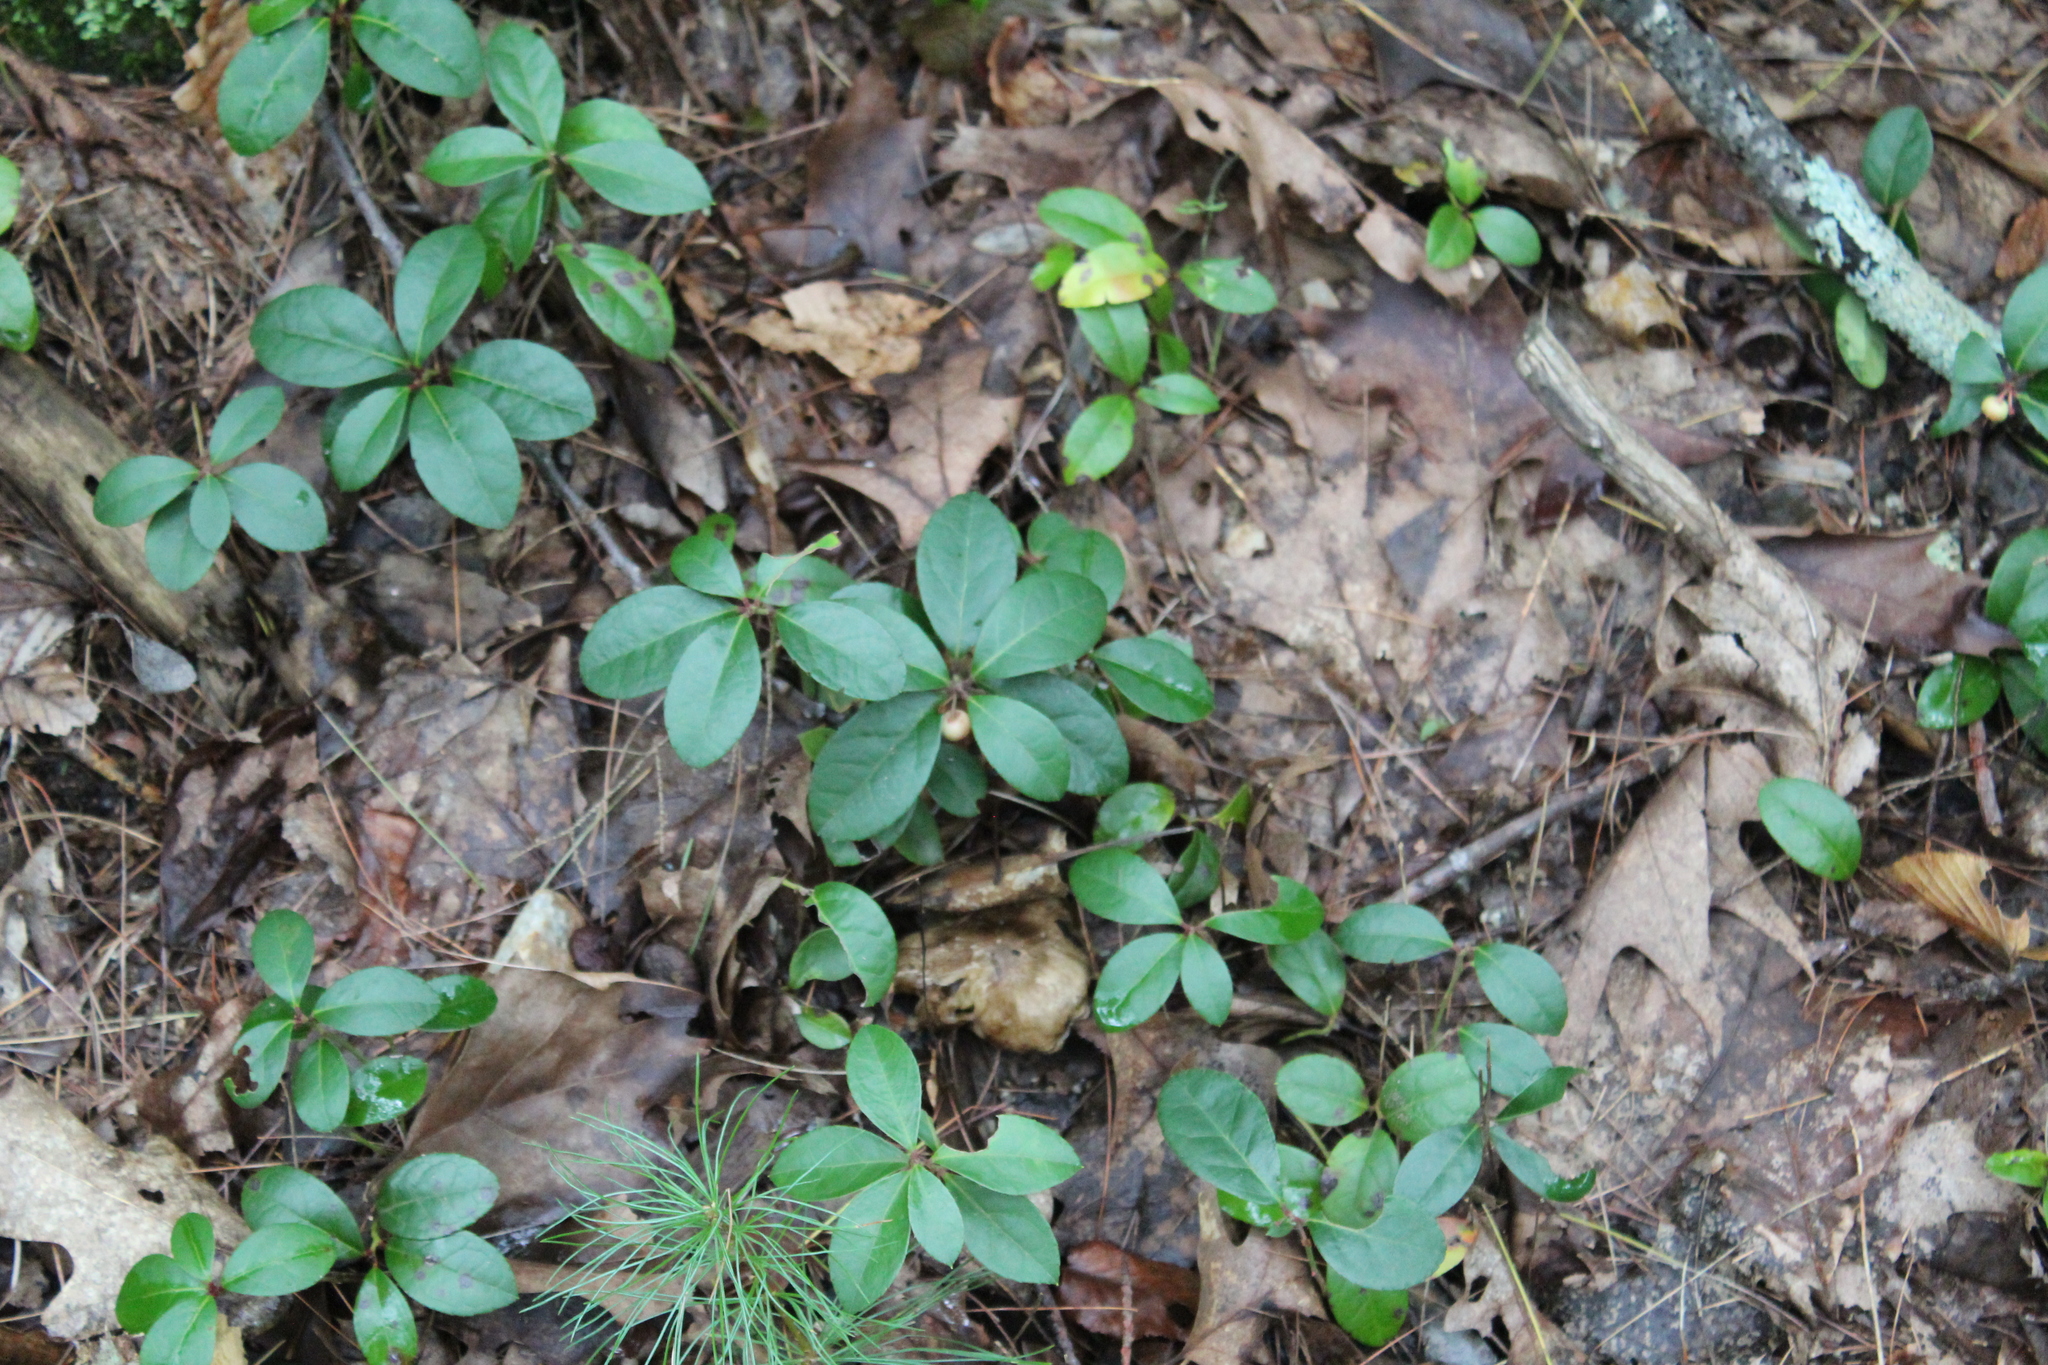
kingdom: Plantae
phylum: Tracheophyta
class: Magnoliopsida
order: Ericales
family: Ericaceae
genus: Gaultheria
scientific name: Gaultheria procumbens
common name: Checkerberry
